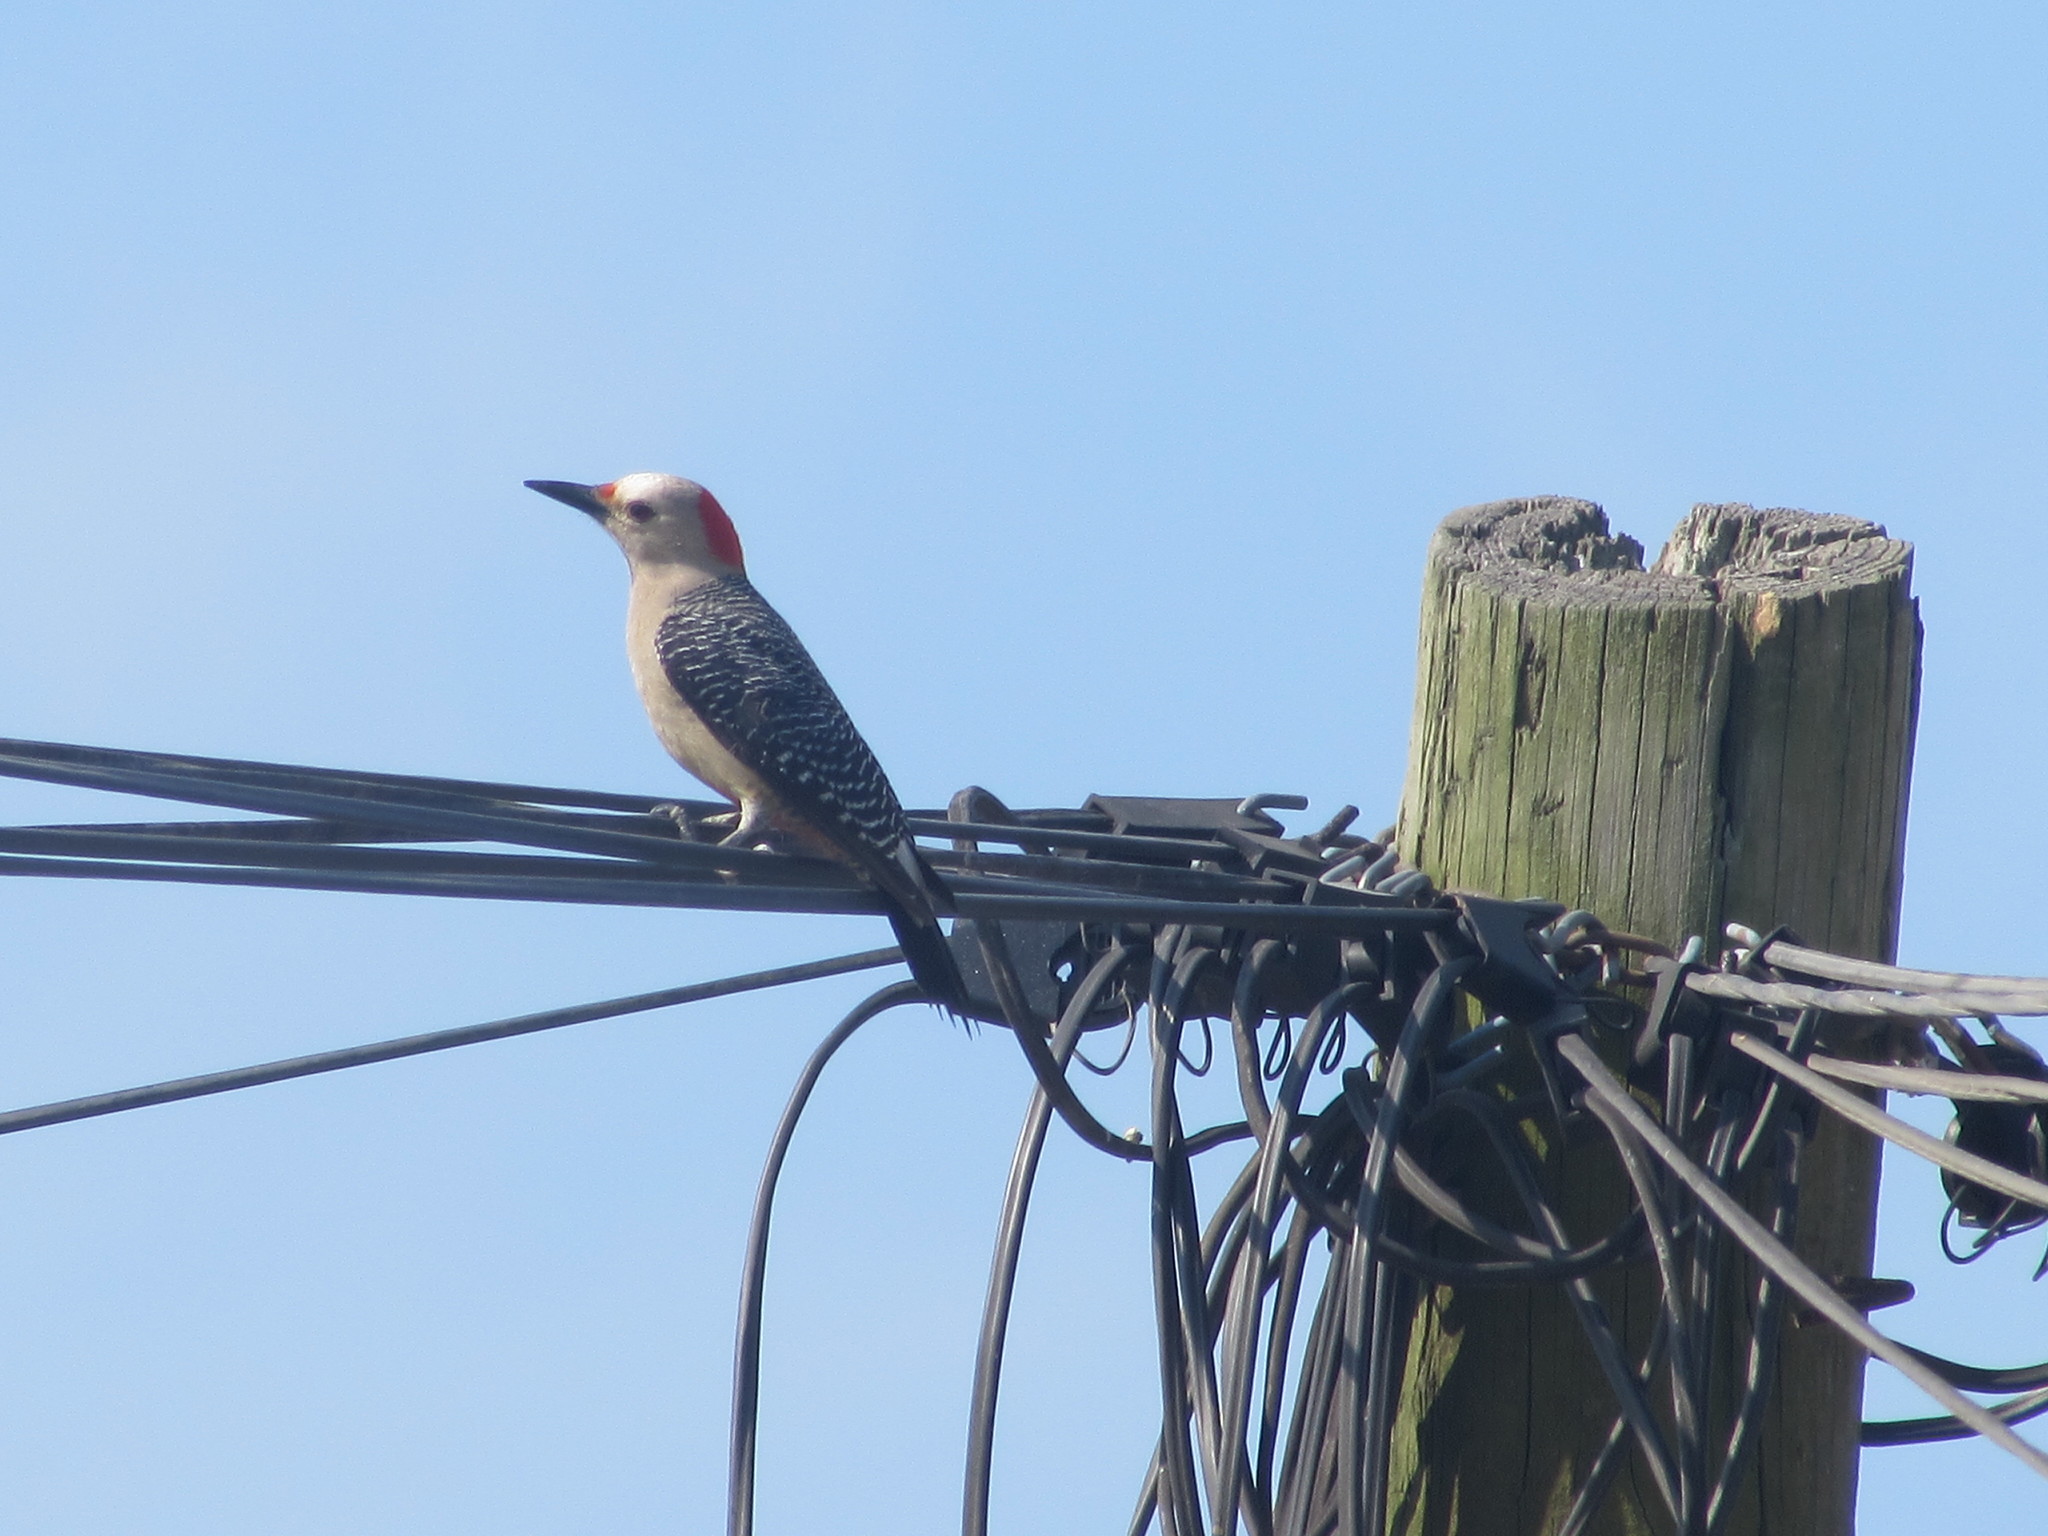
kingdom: Animalia
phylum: Chordata
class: Aves
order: Piciformes
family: Picidae
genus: Melanerpes
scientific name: Melanerpes aurifrons
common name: Golden-fronted woodpecker
